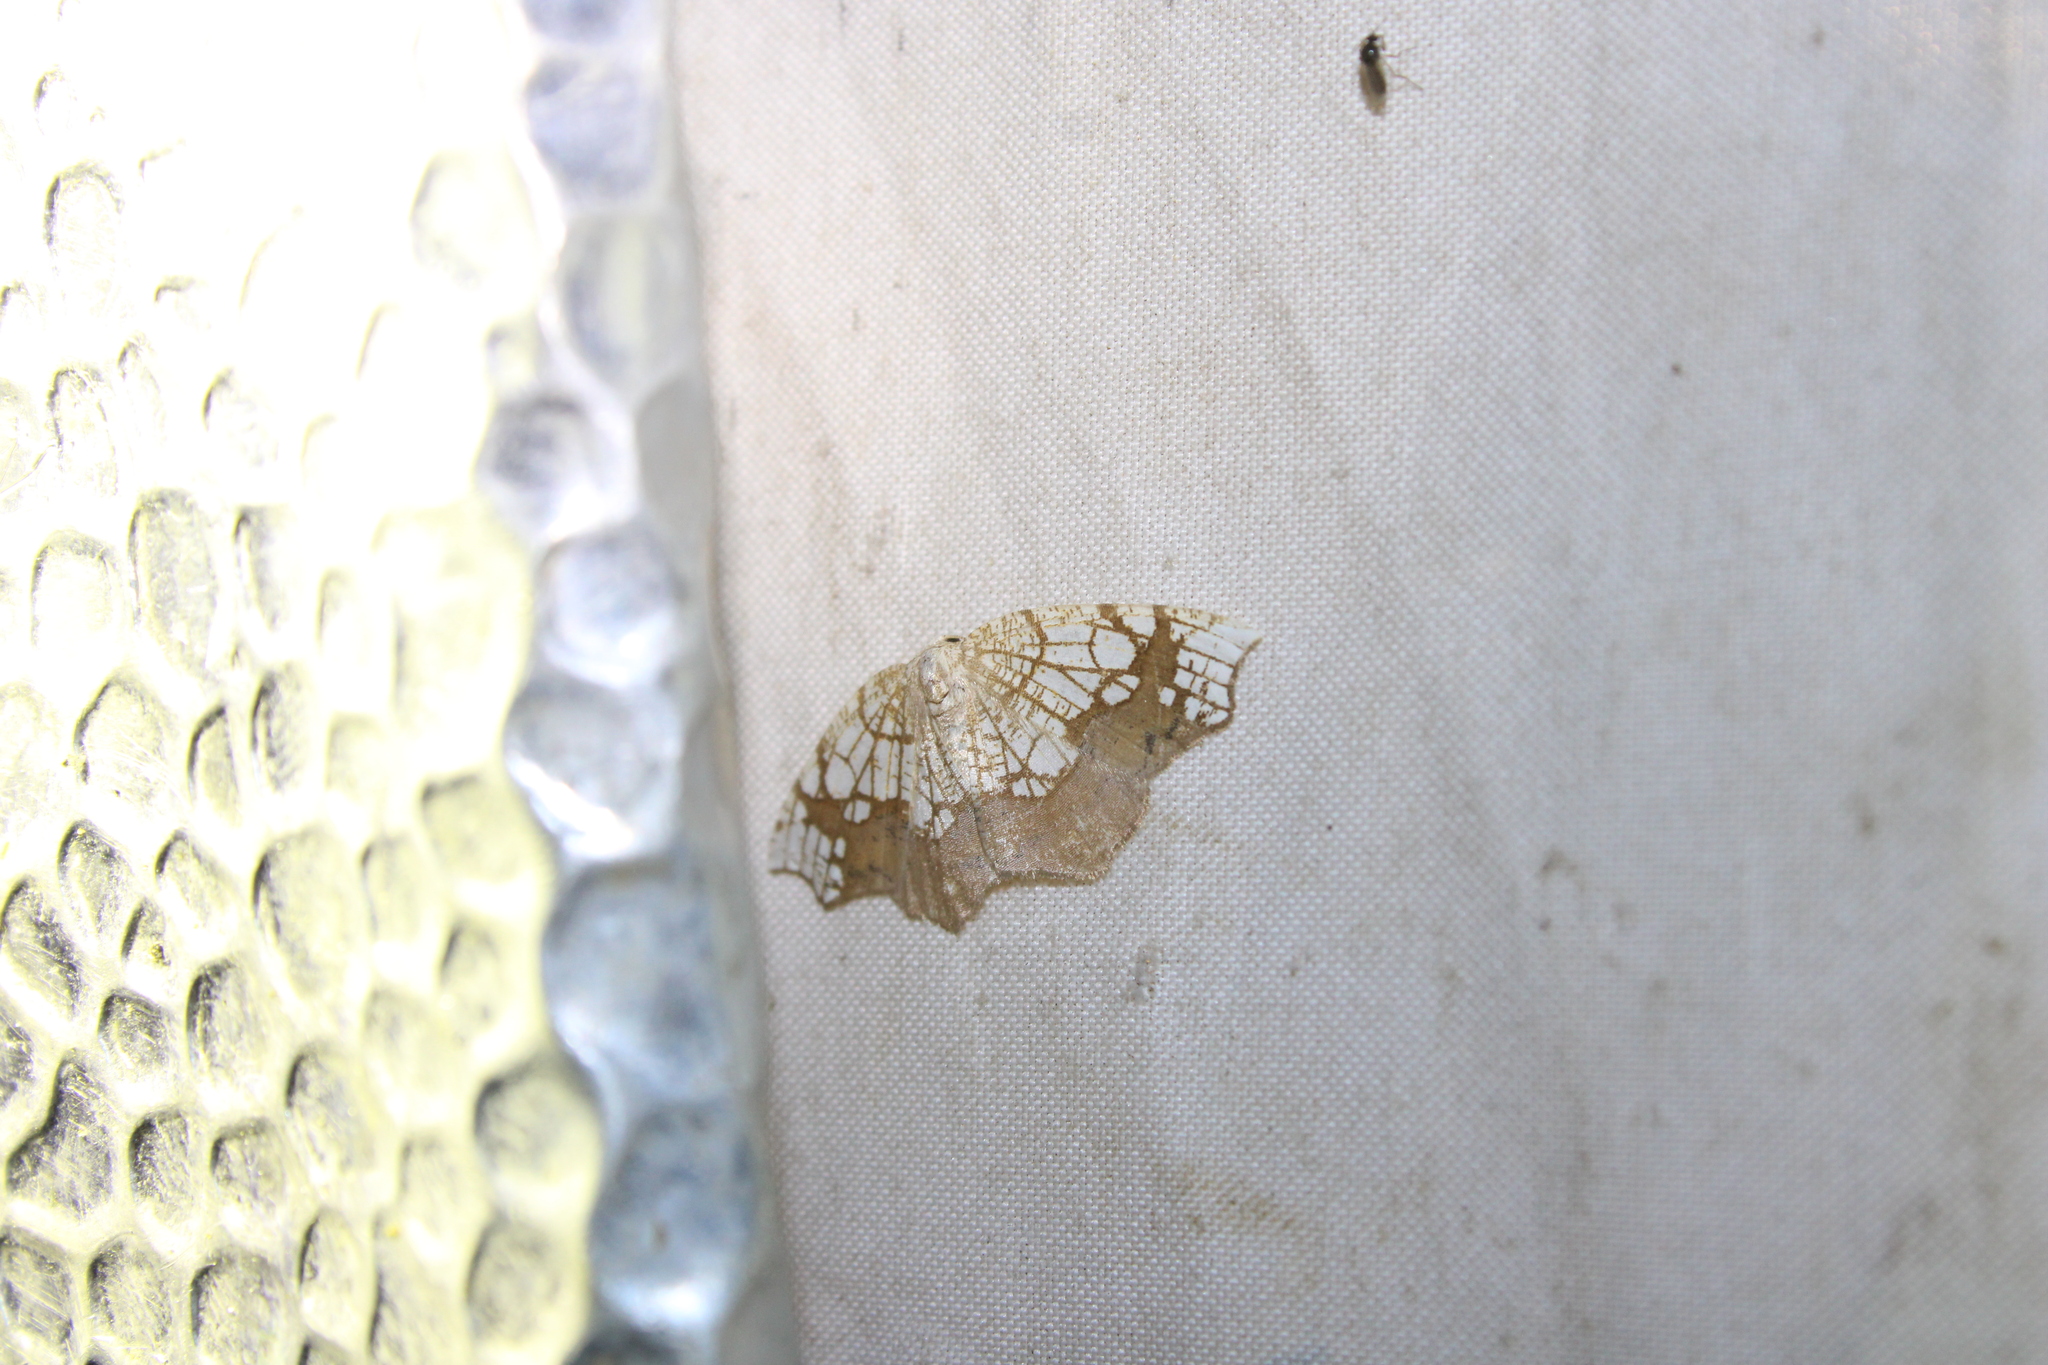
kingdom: Animalia
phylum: Arthropoda
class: Insecta
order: Lepidoptera
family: Geometridae
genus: Nematocampa
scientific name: Nematocampa resistaria
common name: Horned spanworm moth
